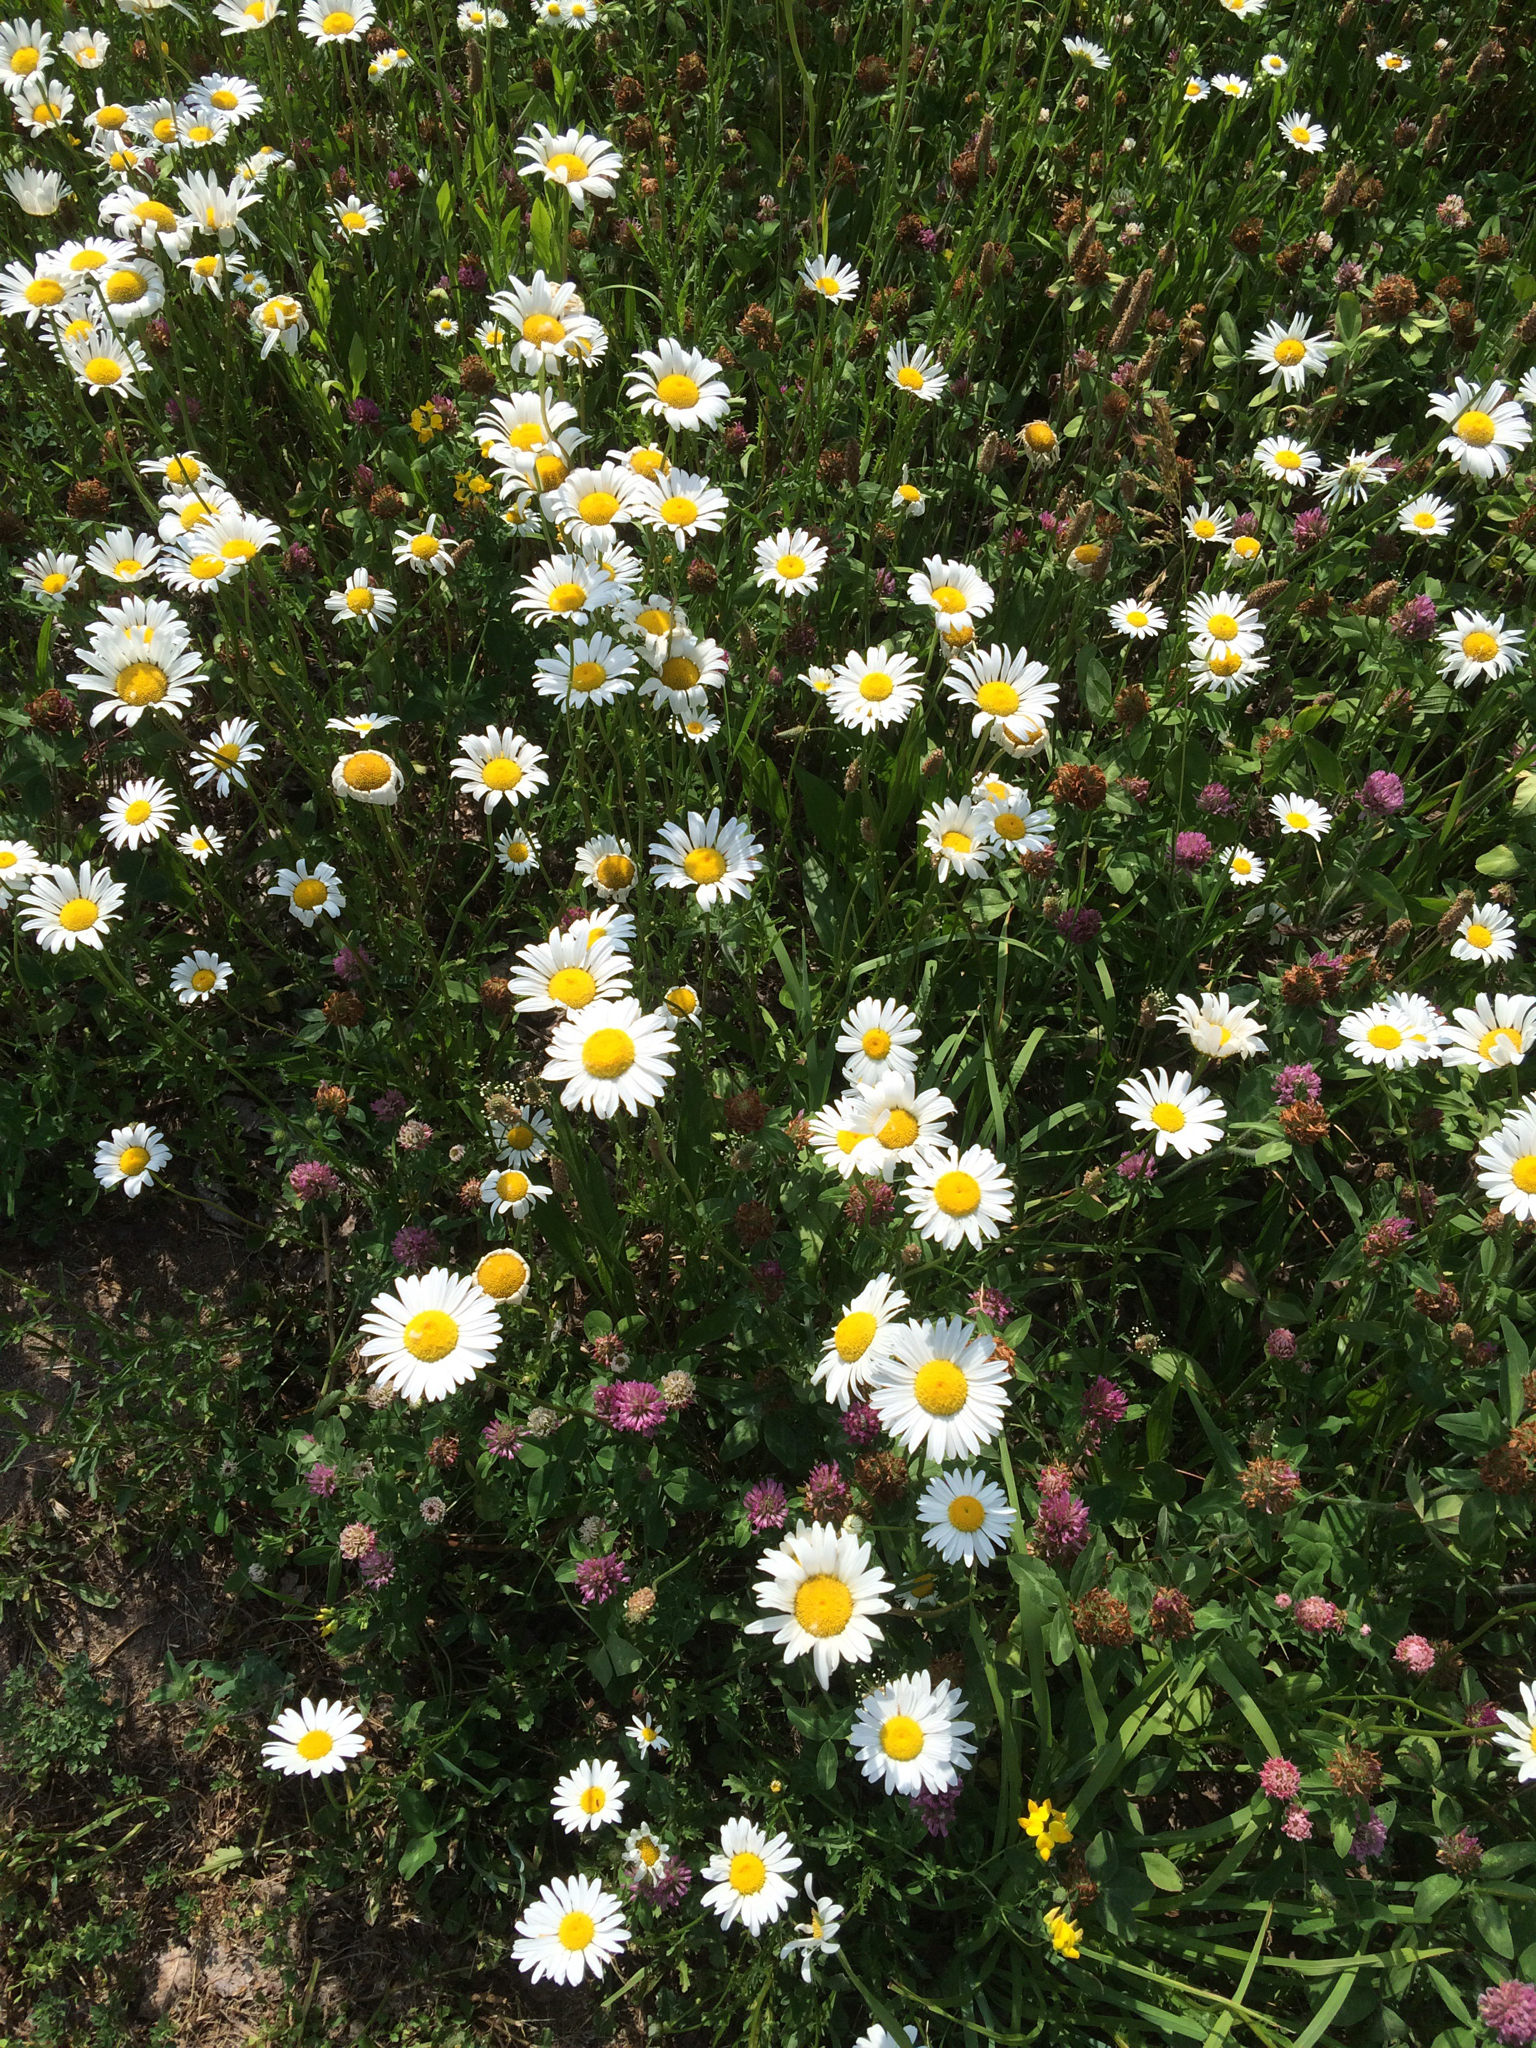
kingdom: Plantae
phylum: Tracheophyta
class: Magnoliopsida
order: Asterales
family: Asteraceae
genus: Leucanthemum
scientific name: Leucanthemum vulgare
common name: Oxeye daisy
